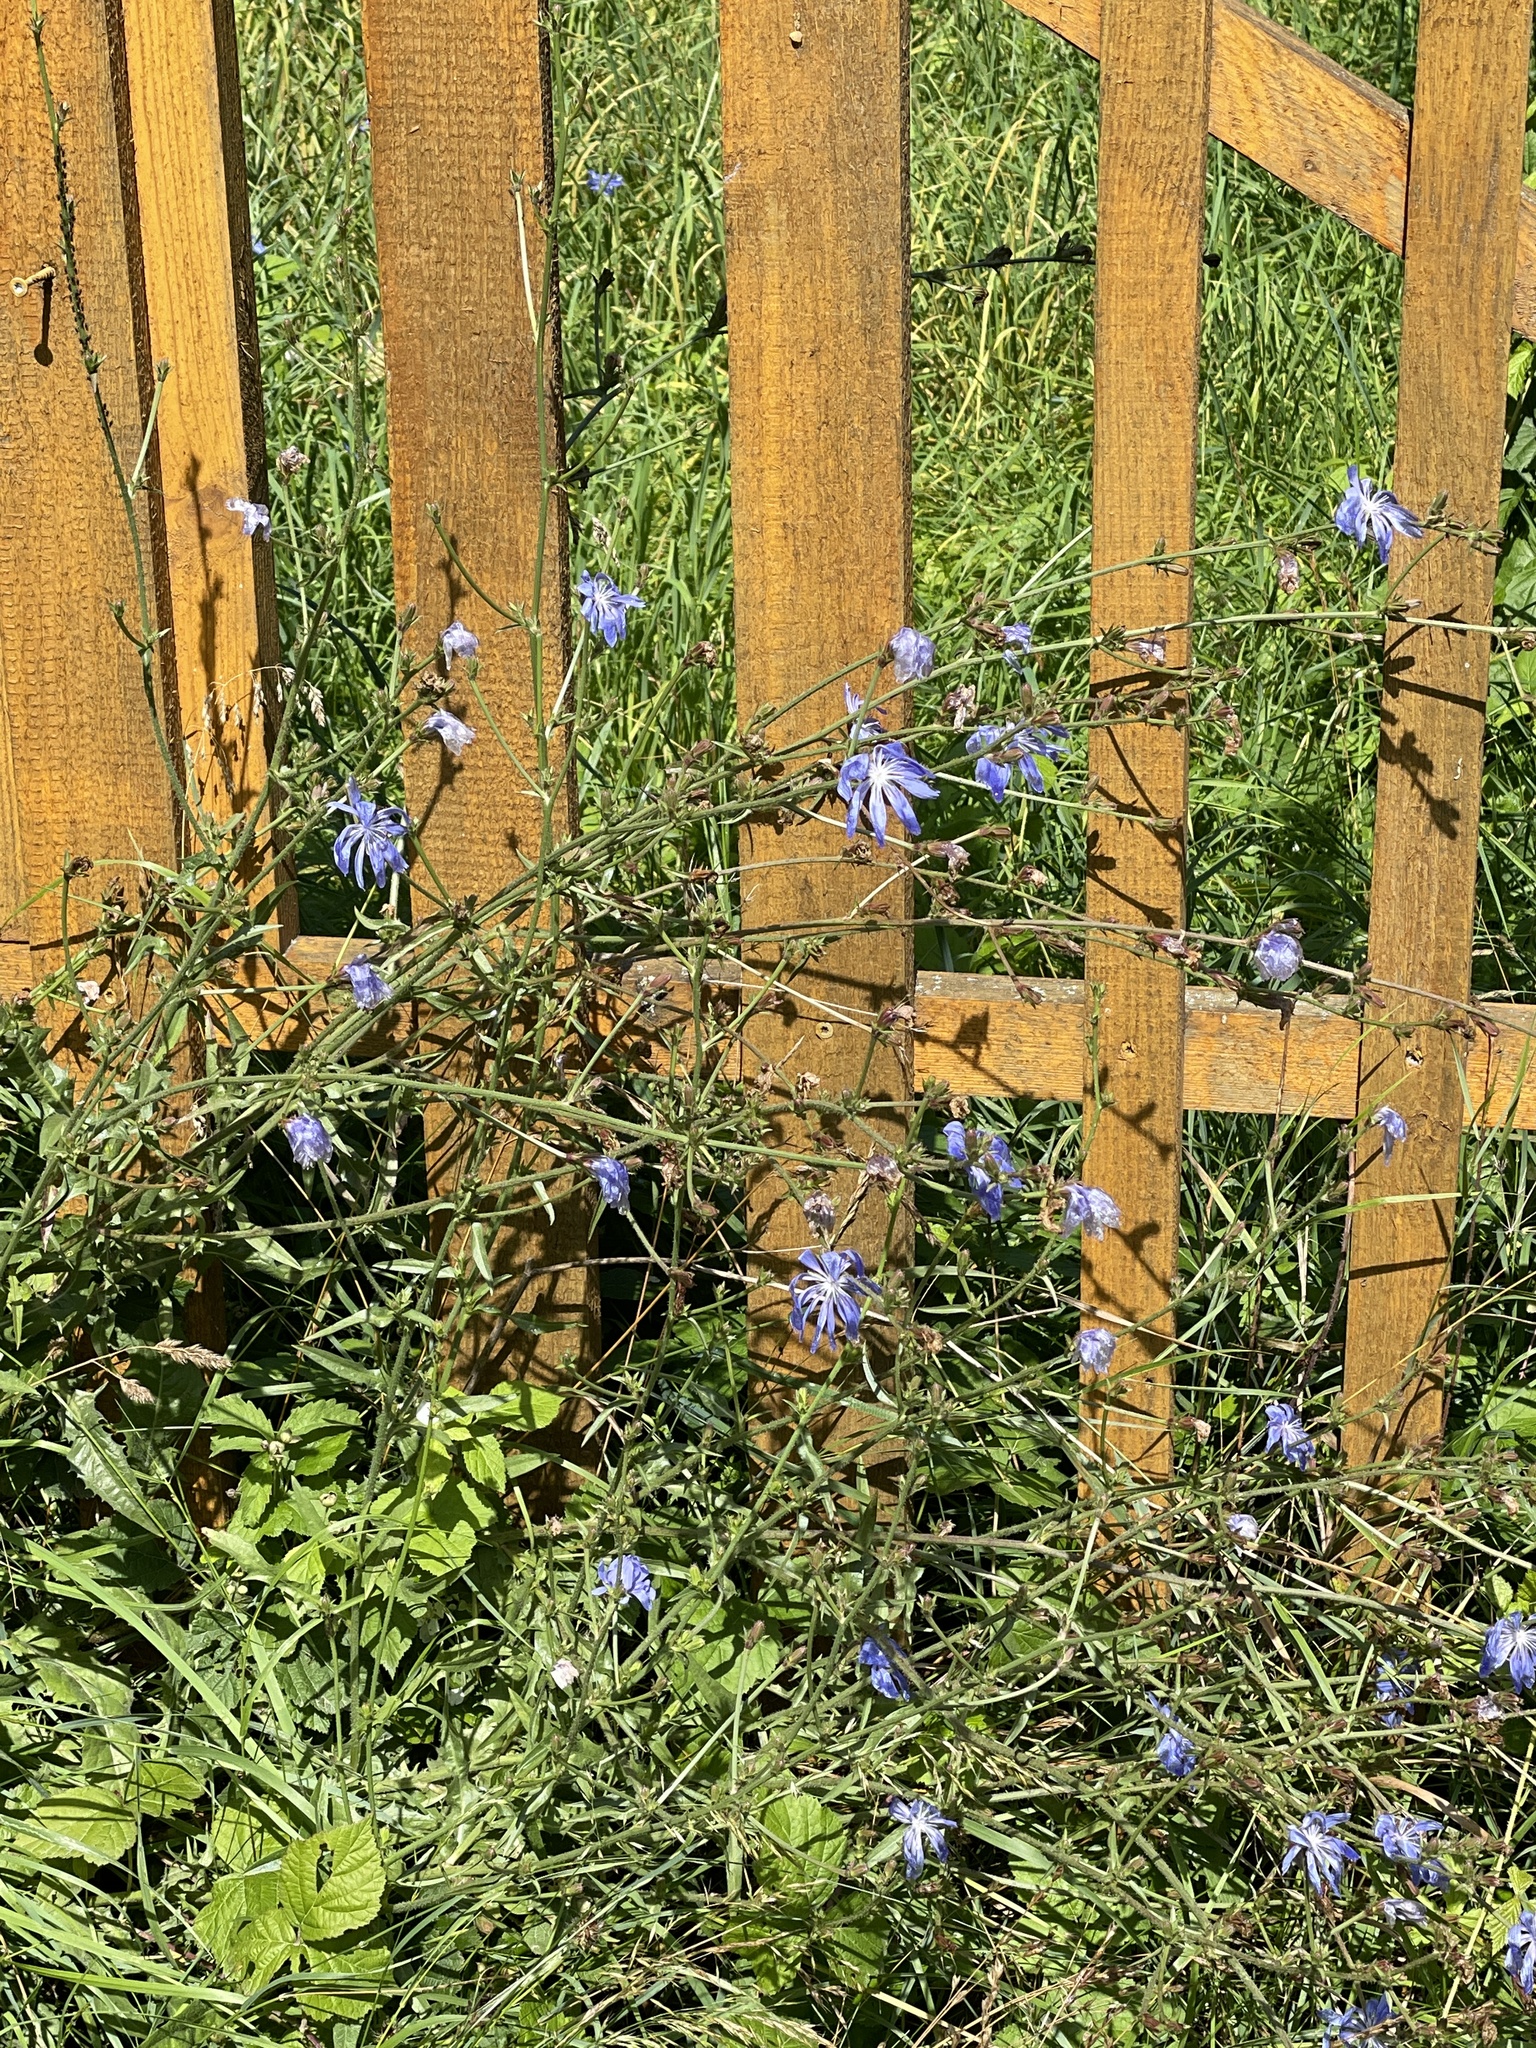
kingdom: Plantae
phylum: Tracheophyta
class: Magnoliopsida
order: Asterales
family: Asteraceae
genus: Cichorium
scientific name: Cichorium intybus
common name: Chicory
